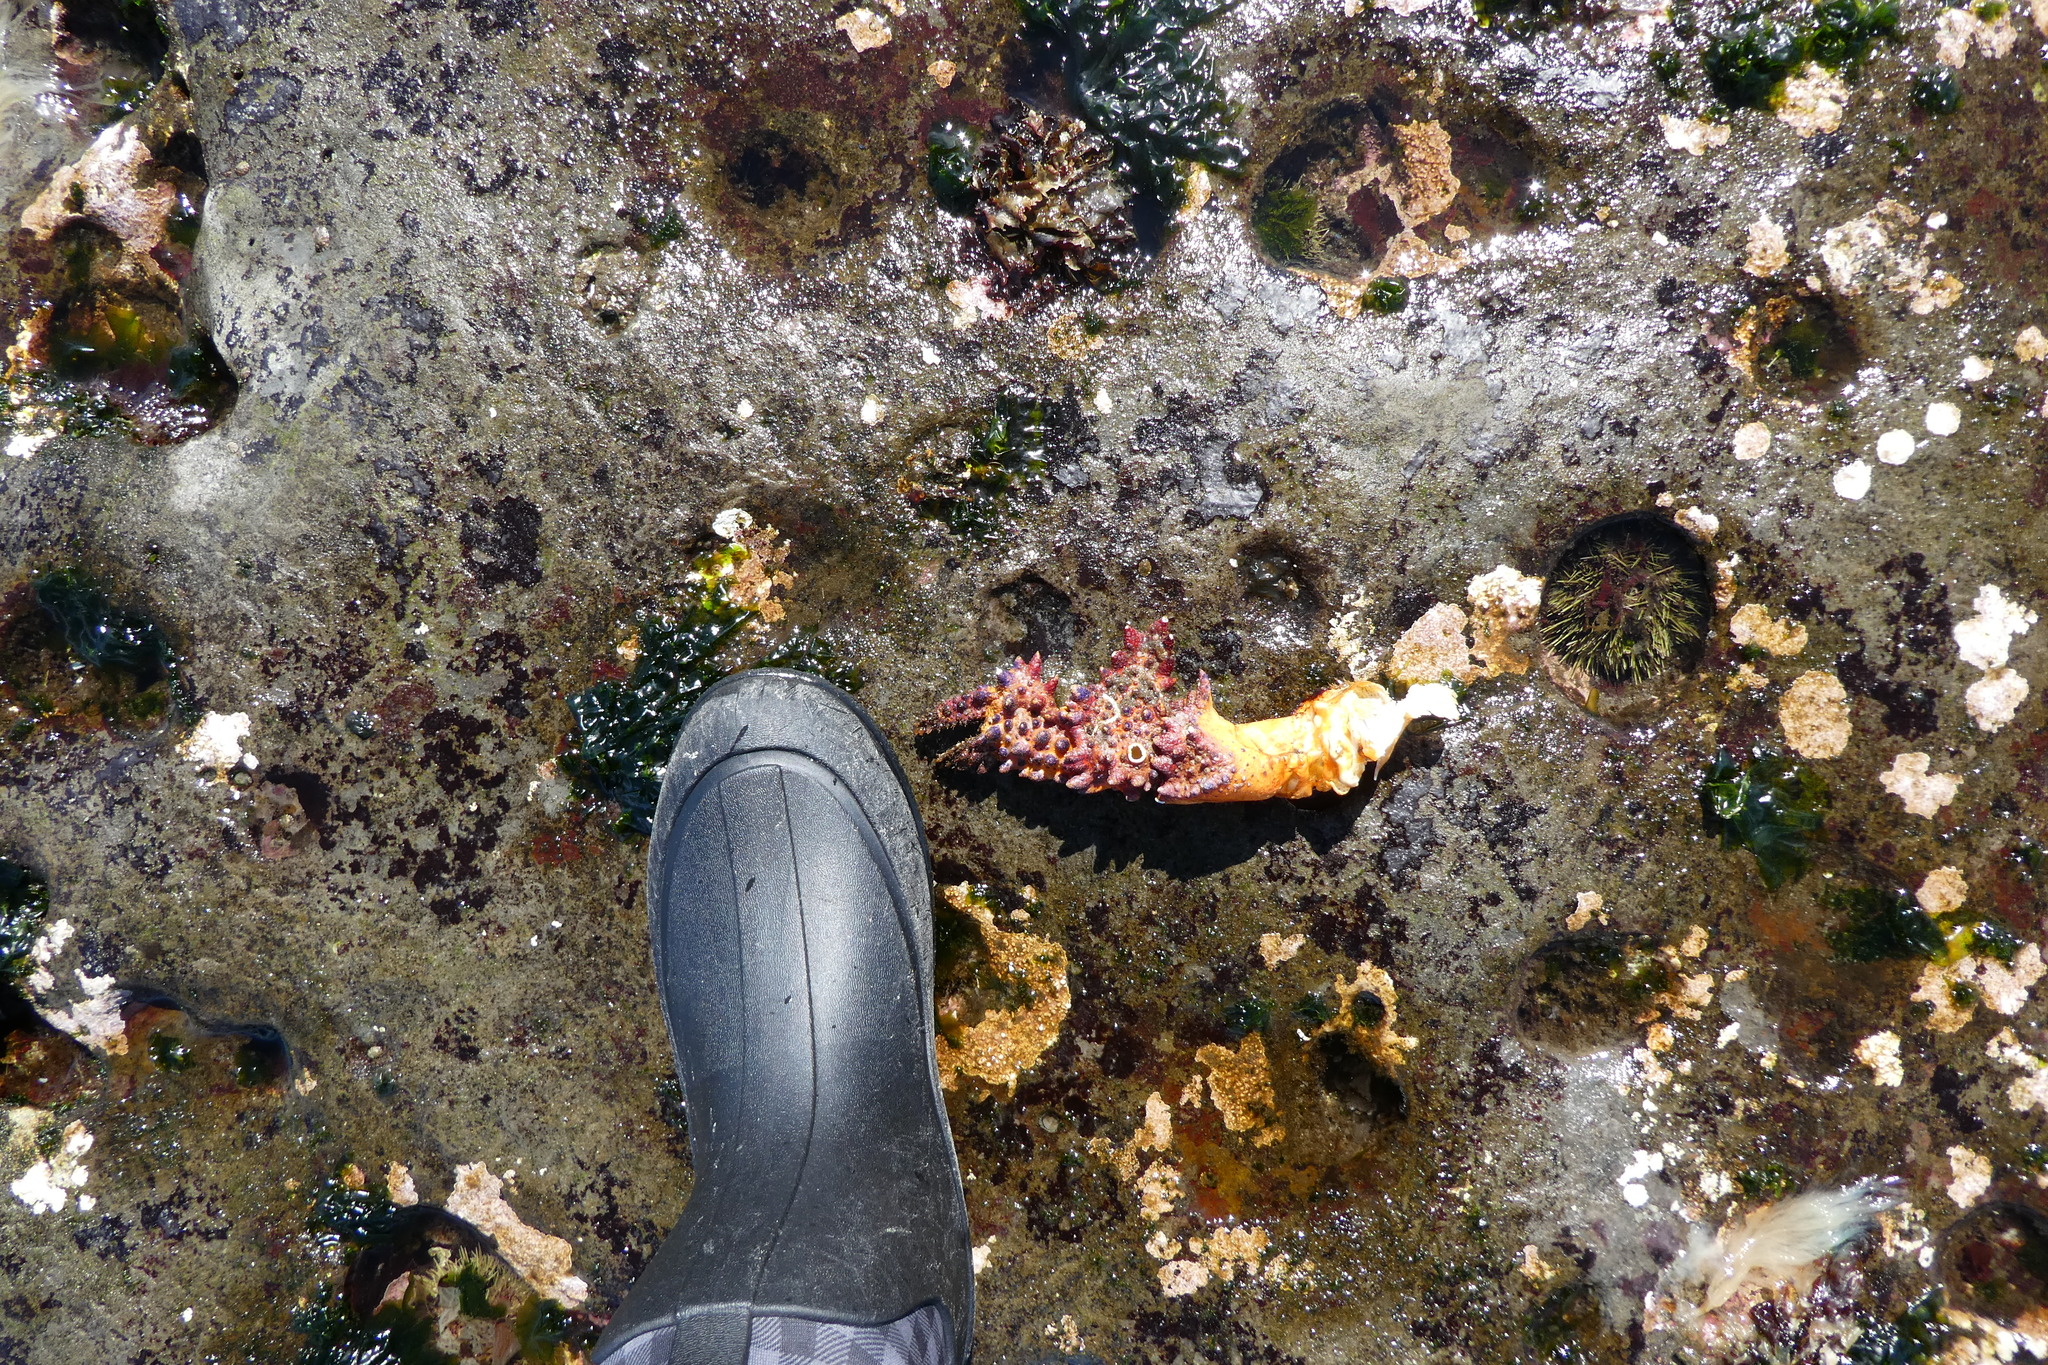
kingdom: Animalia
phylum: Arthropoda
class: Malacostraca
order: Decapoda
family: Lithodidae
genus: Echidnocerus
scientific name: Echidnocerus cibarius
